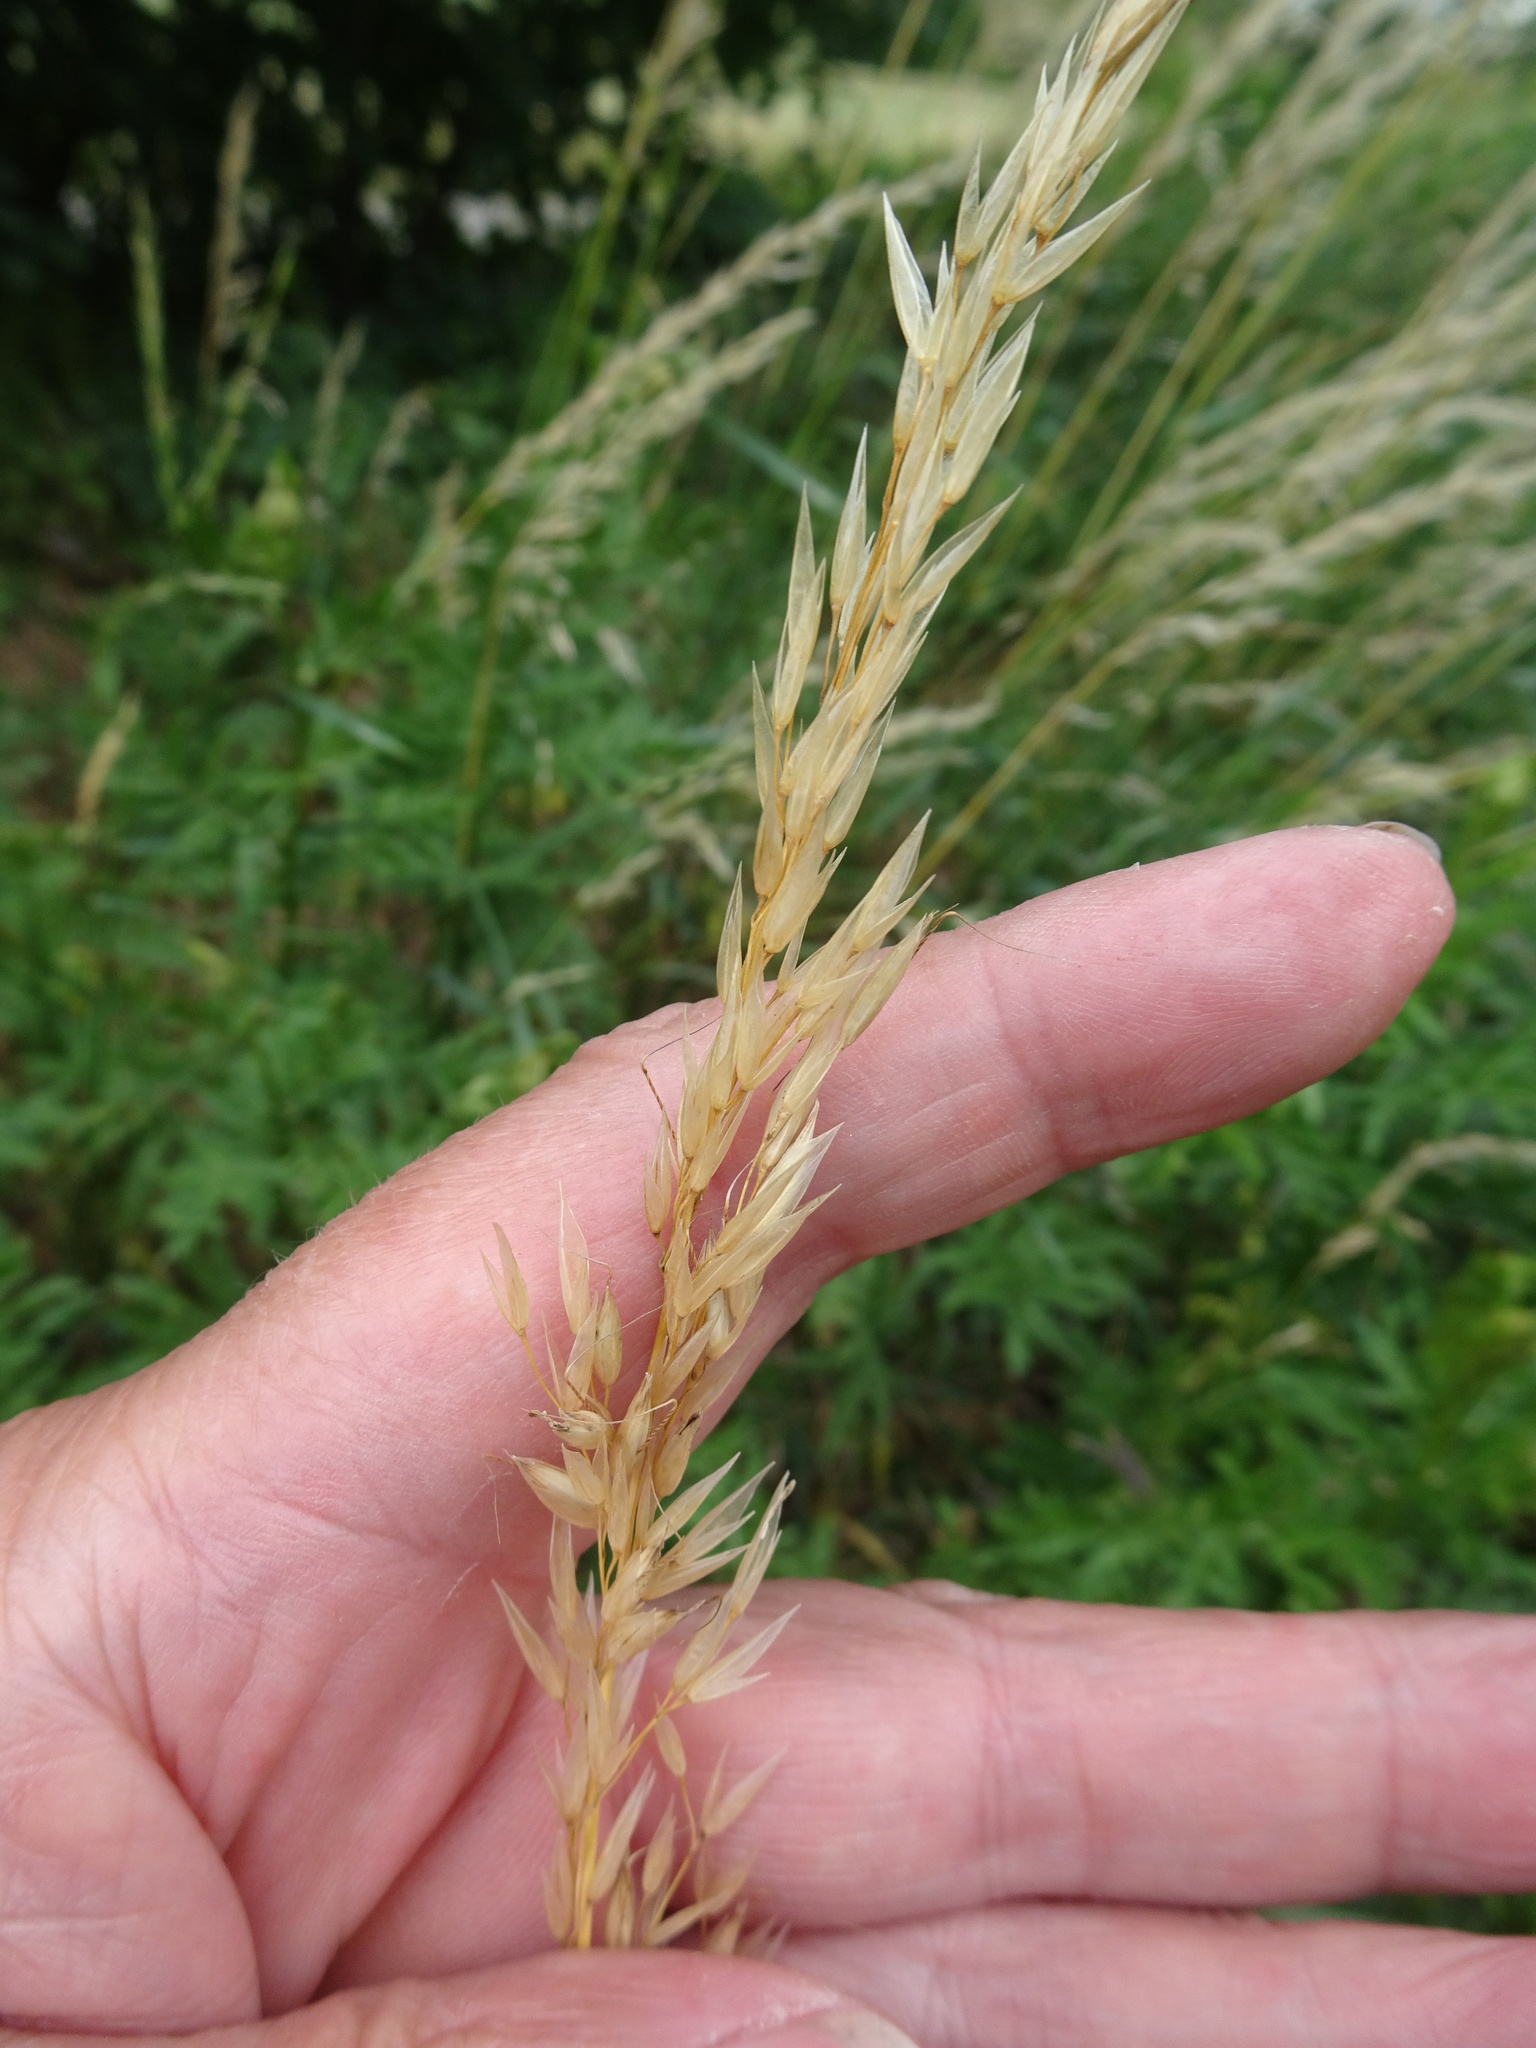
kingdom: Plantae
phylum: Tracheophyta
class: Liliopsida
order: Poales
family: Poaceae
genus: Arrhenatherum
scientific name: Arrhenatherum elatius
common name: Tall oatgrass
